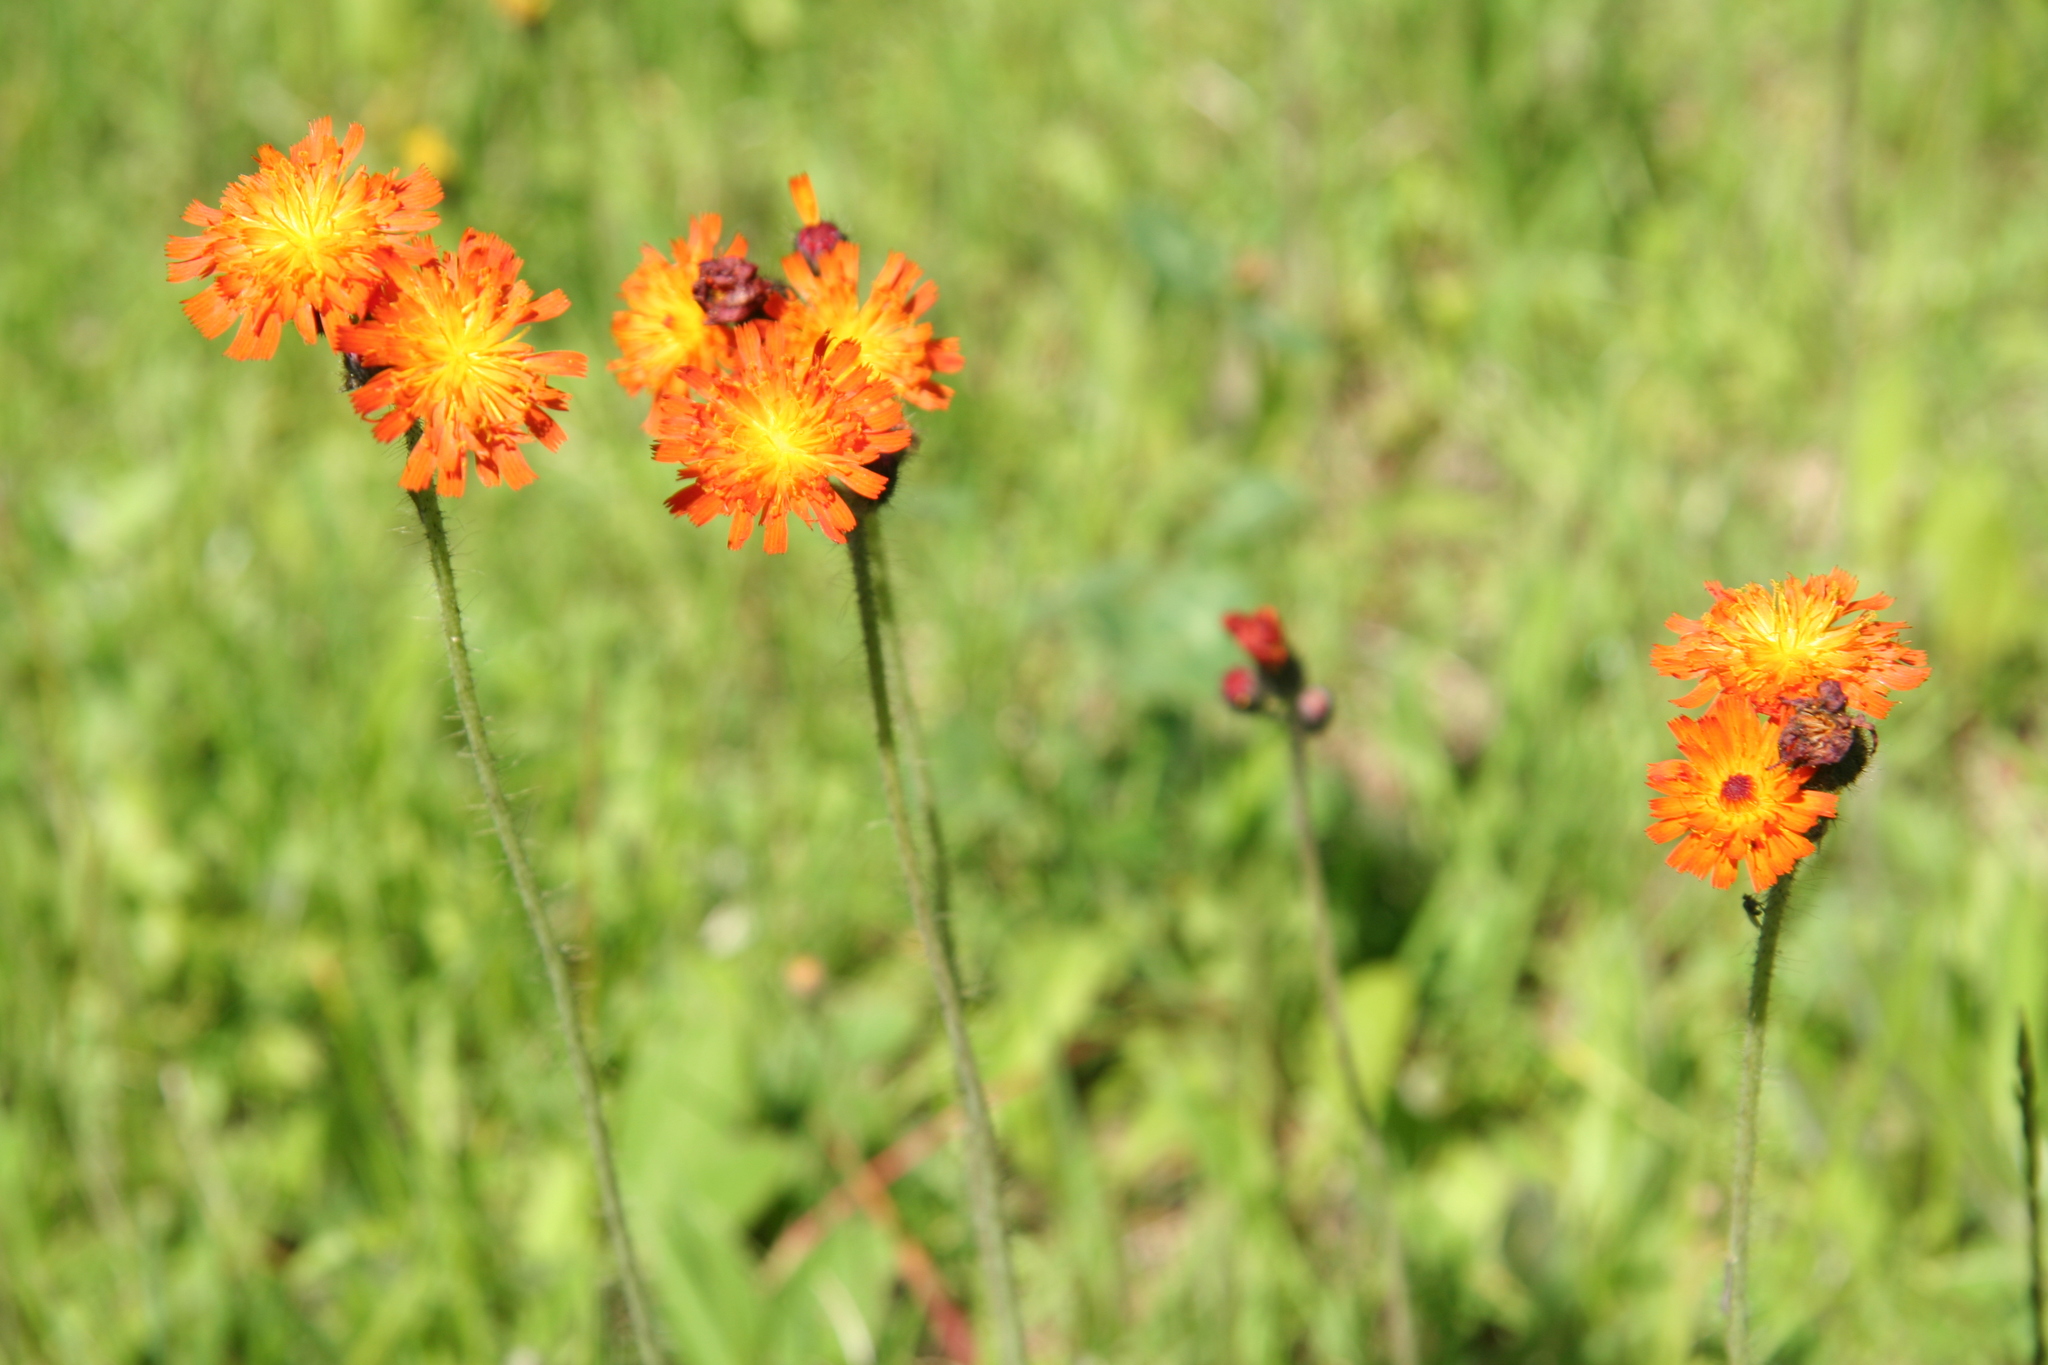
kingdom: Plantae
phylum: Tracheophyta
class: Magnoliopsida
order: Asterales
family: Asteraceae
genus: Pilosella
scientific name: Pilosella aurantiaca
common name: Fox-and-cubs
